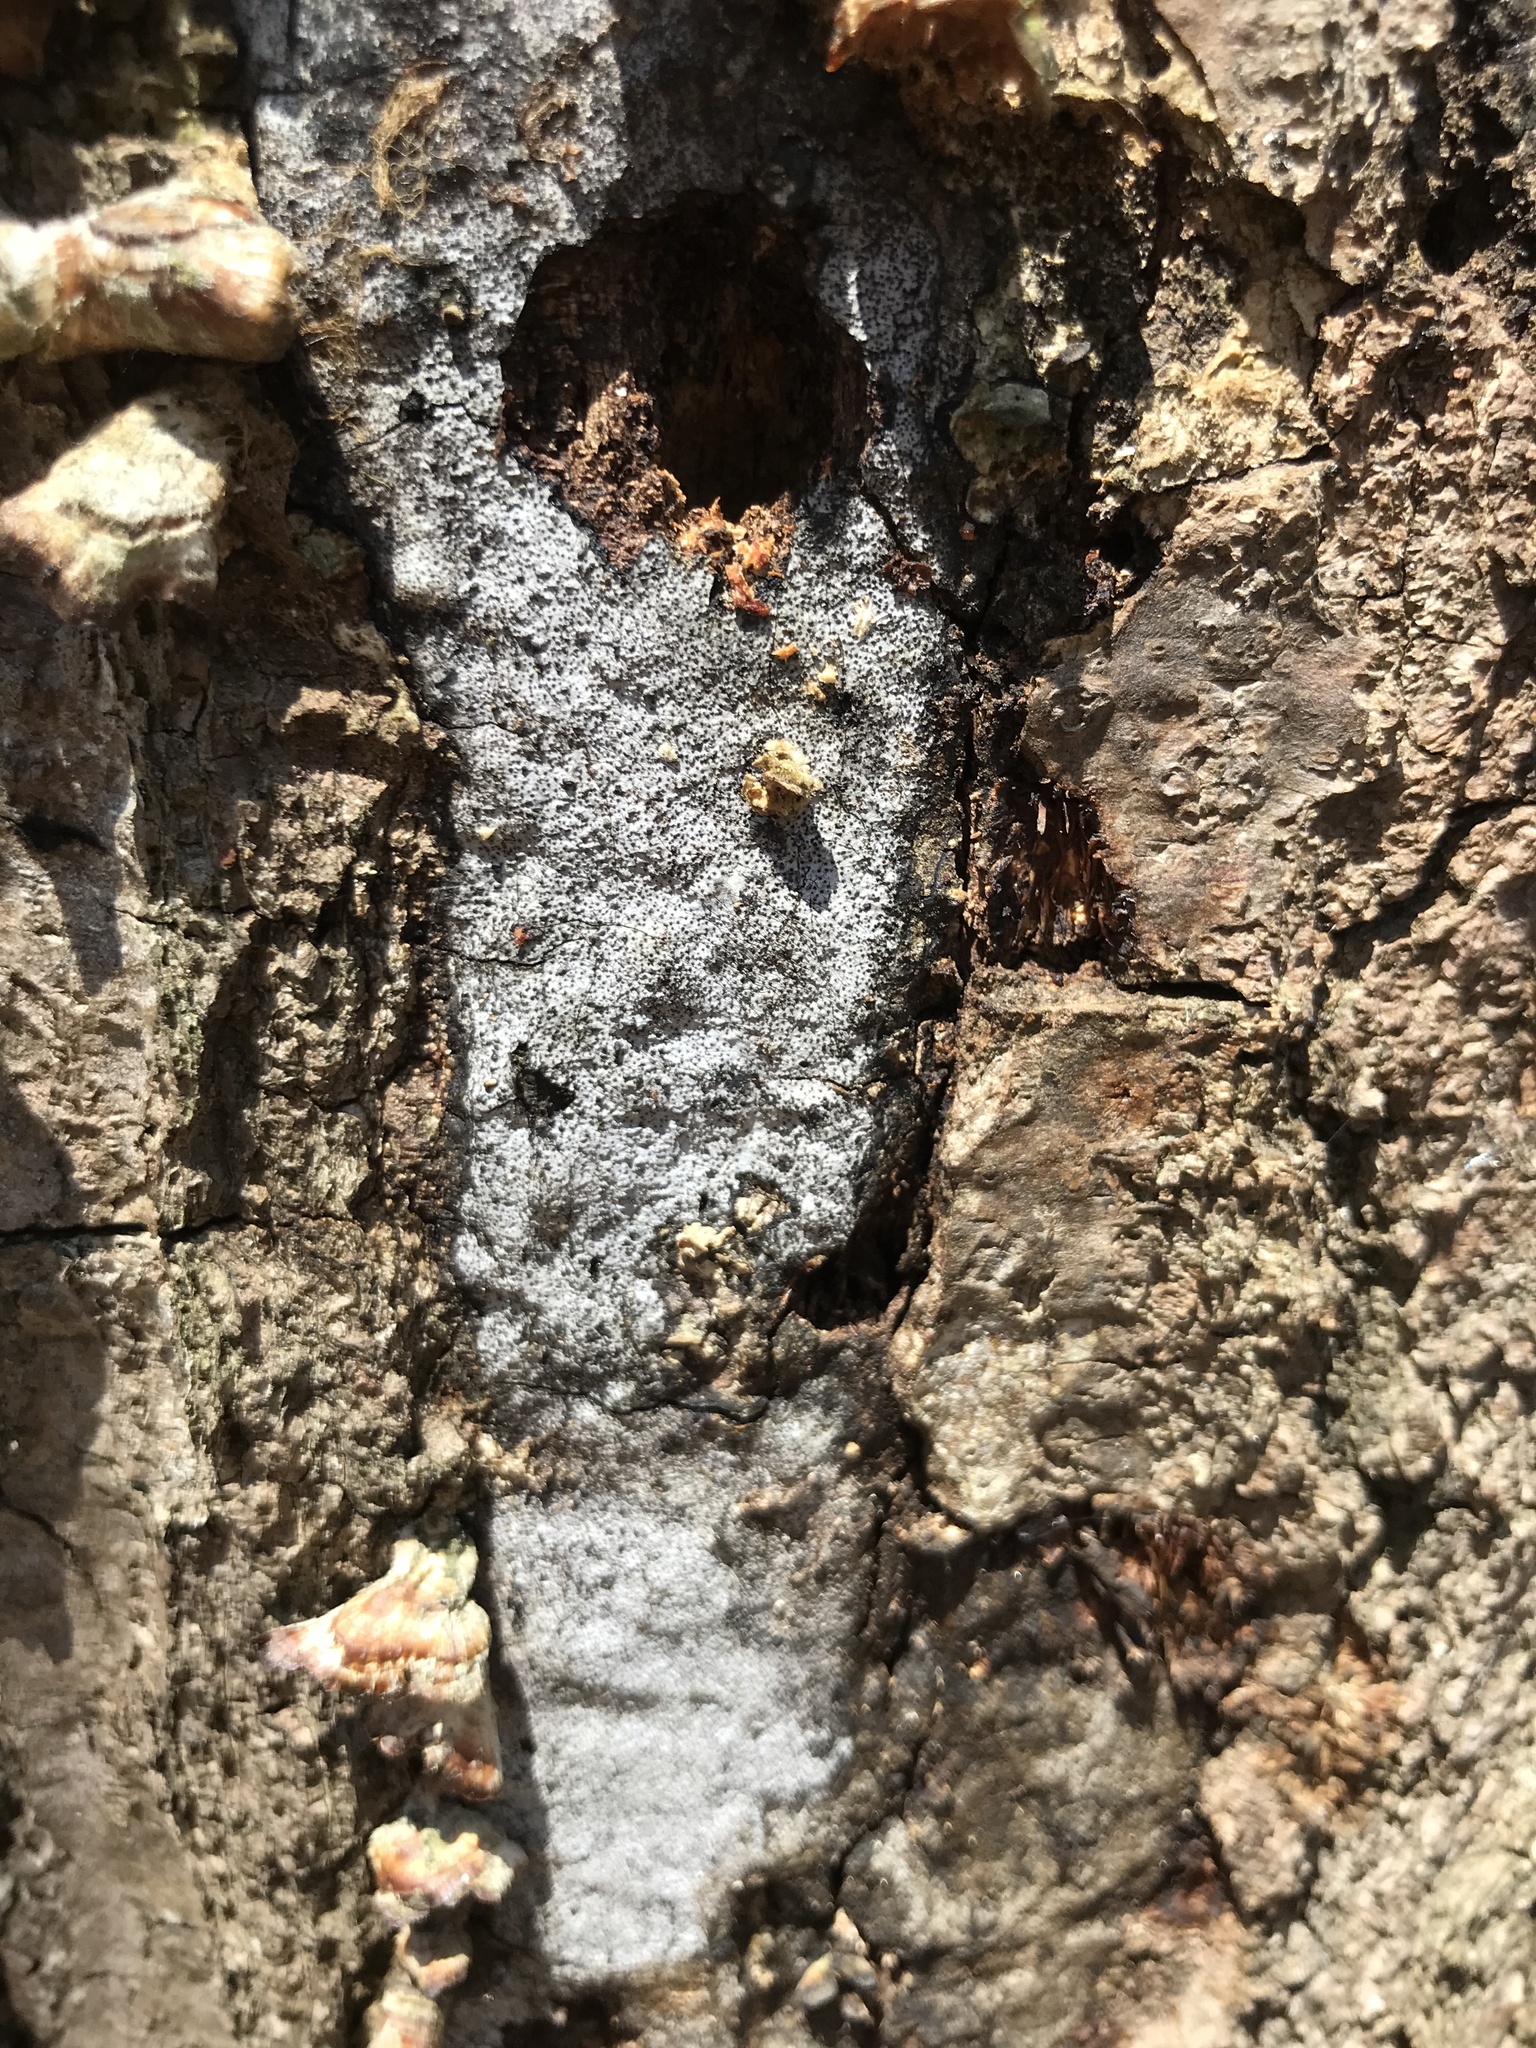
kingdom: Fungi
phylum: Ascomycota
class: Sordariomycetes
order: Xylariales
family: Graphostromataceae
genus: Biscogniauxia
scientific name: Biscogniauxia atropunctata
